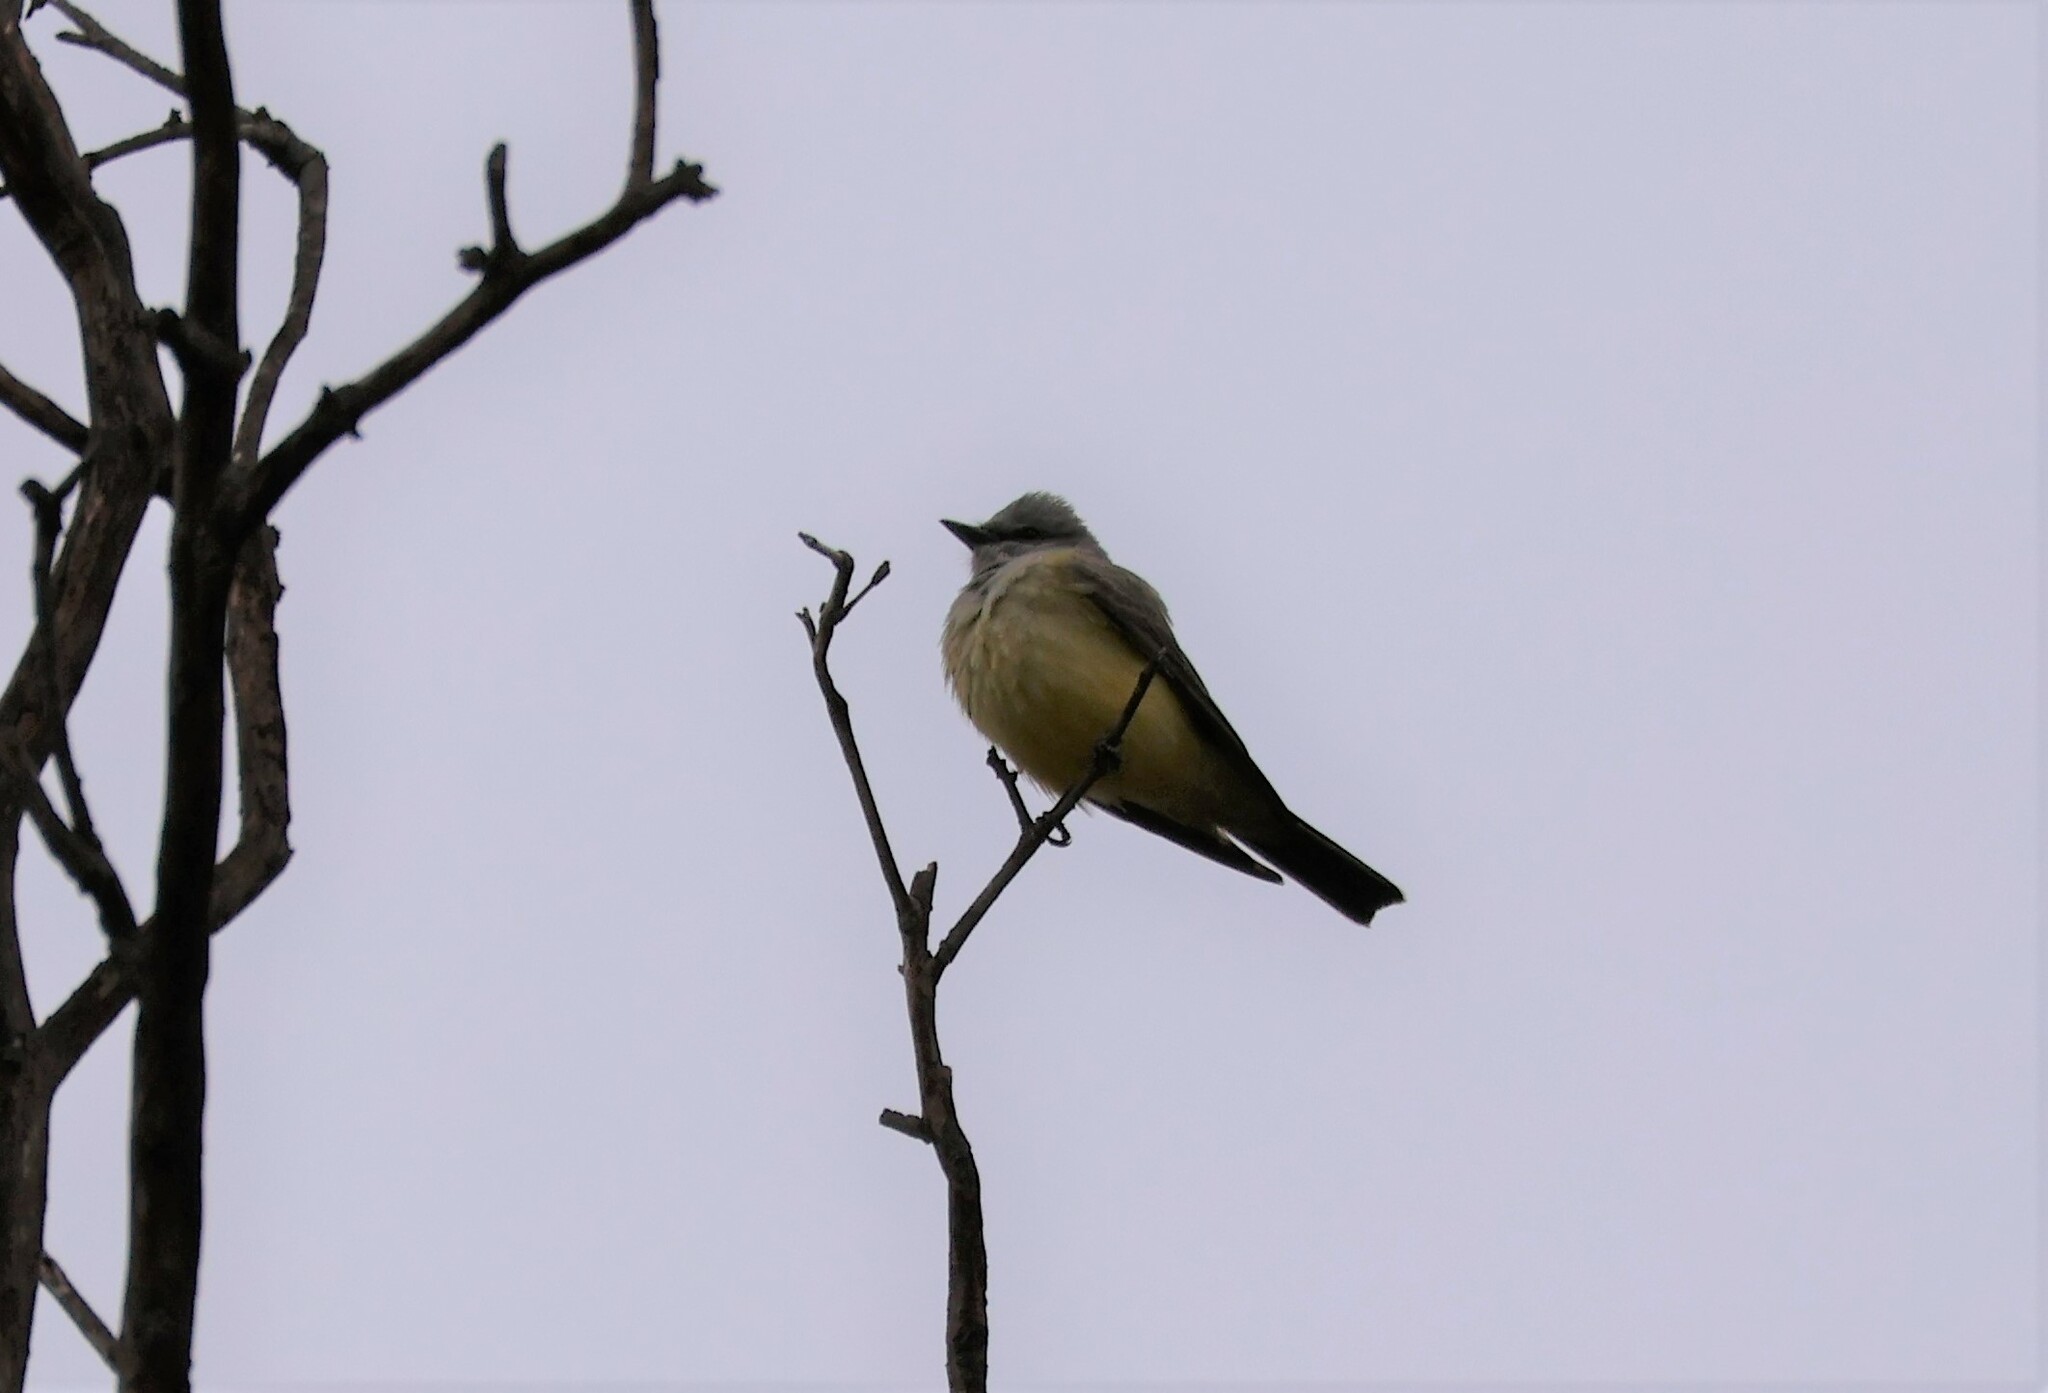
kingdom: Animalia
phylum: Chordata
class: Aves
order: Passeriformes
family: Tyrannidae
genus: Tyrannus
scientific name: Tyrannus verticalis
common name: Western kingbird
